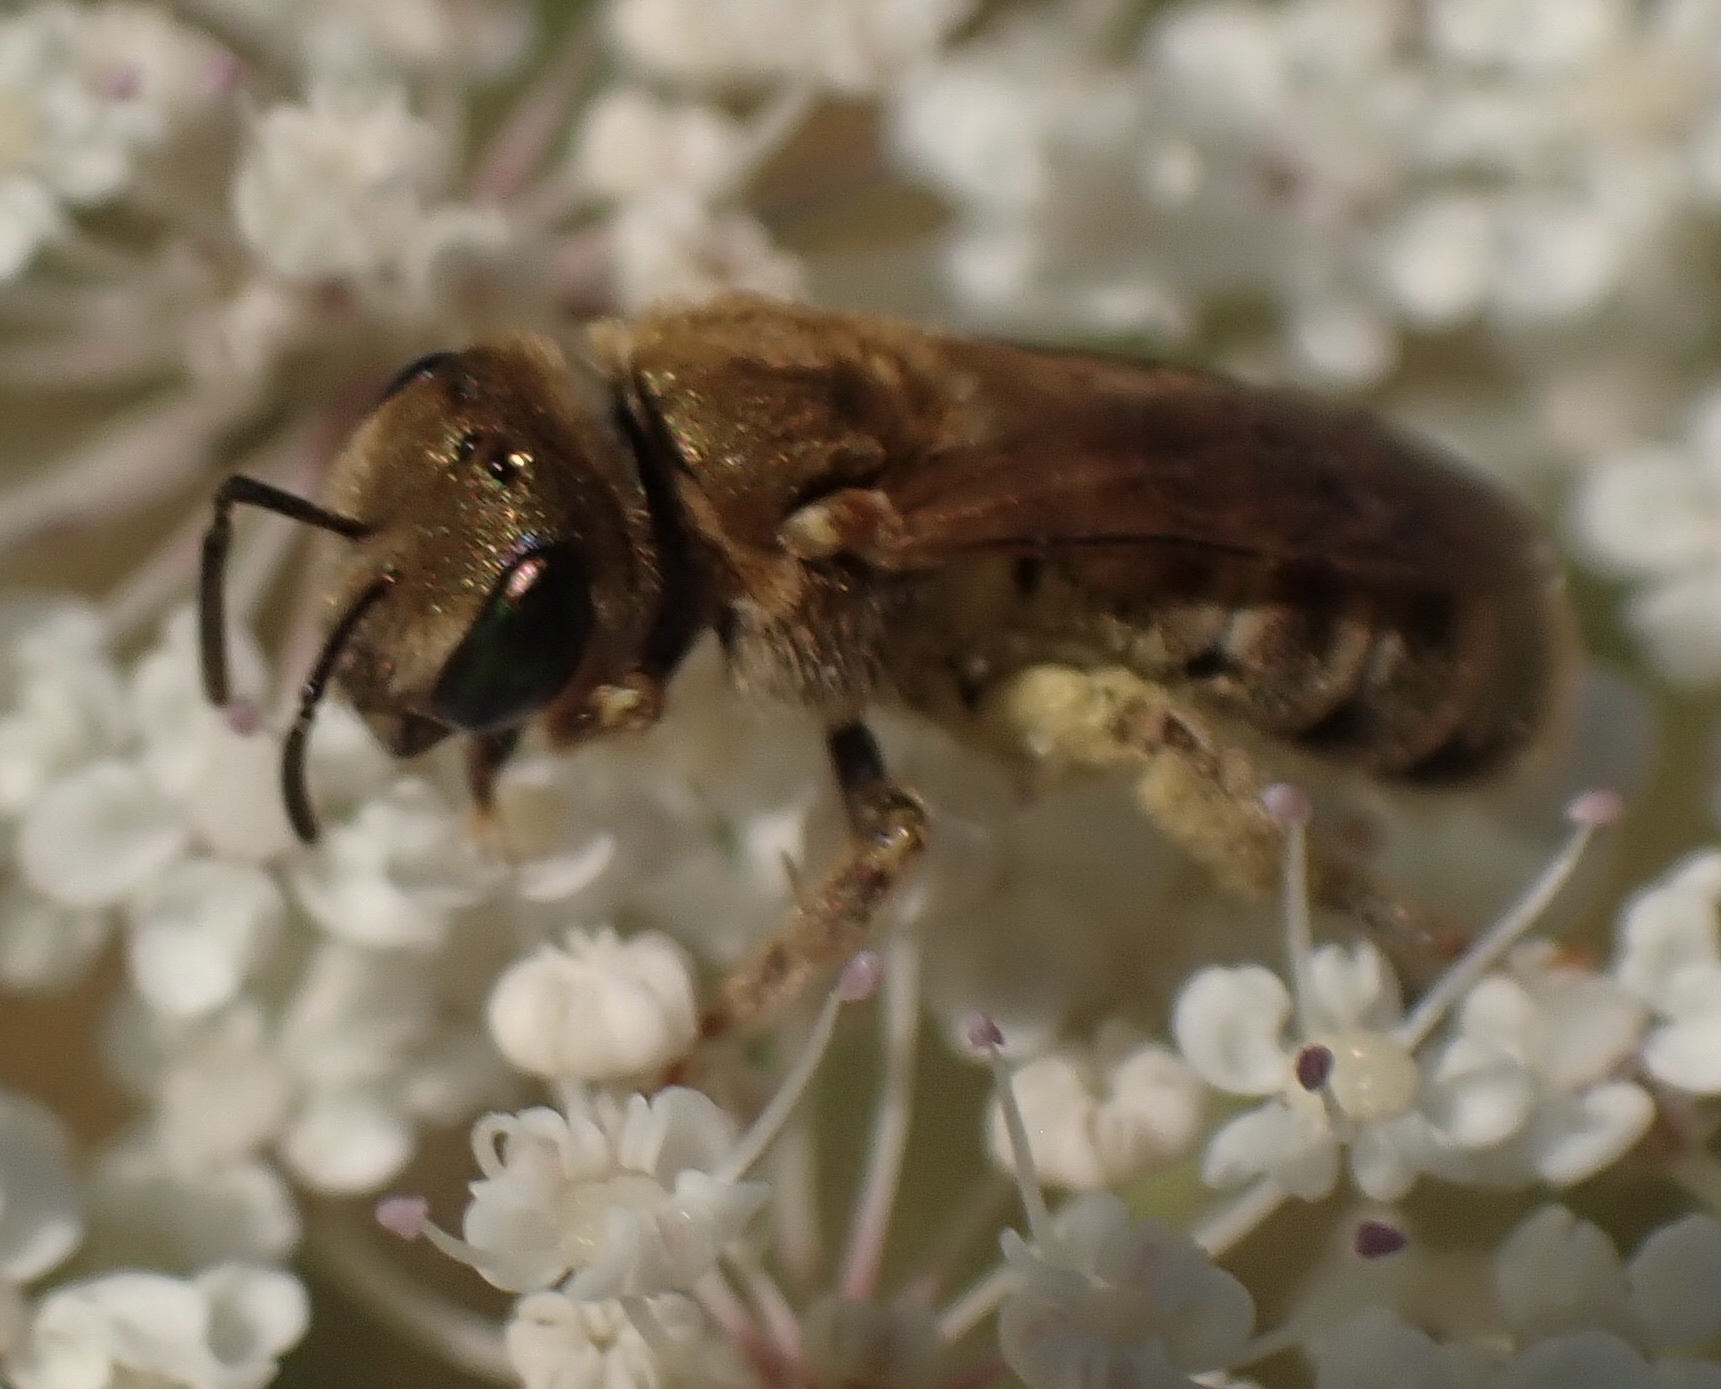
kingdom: Animalia
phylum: Arthropoda
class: Insecta
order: Hymenoptera
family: Halictidae
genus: Halictus
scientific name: Halictus subauratus
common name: Golden furrow bee
